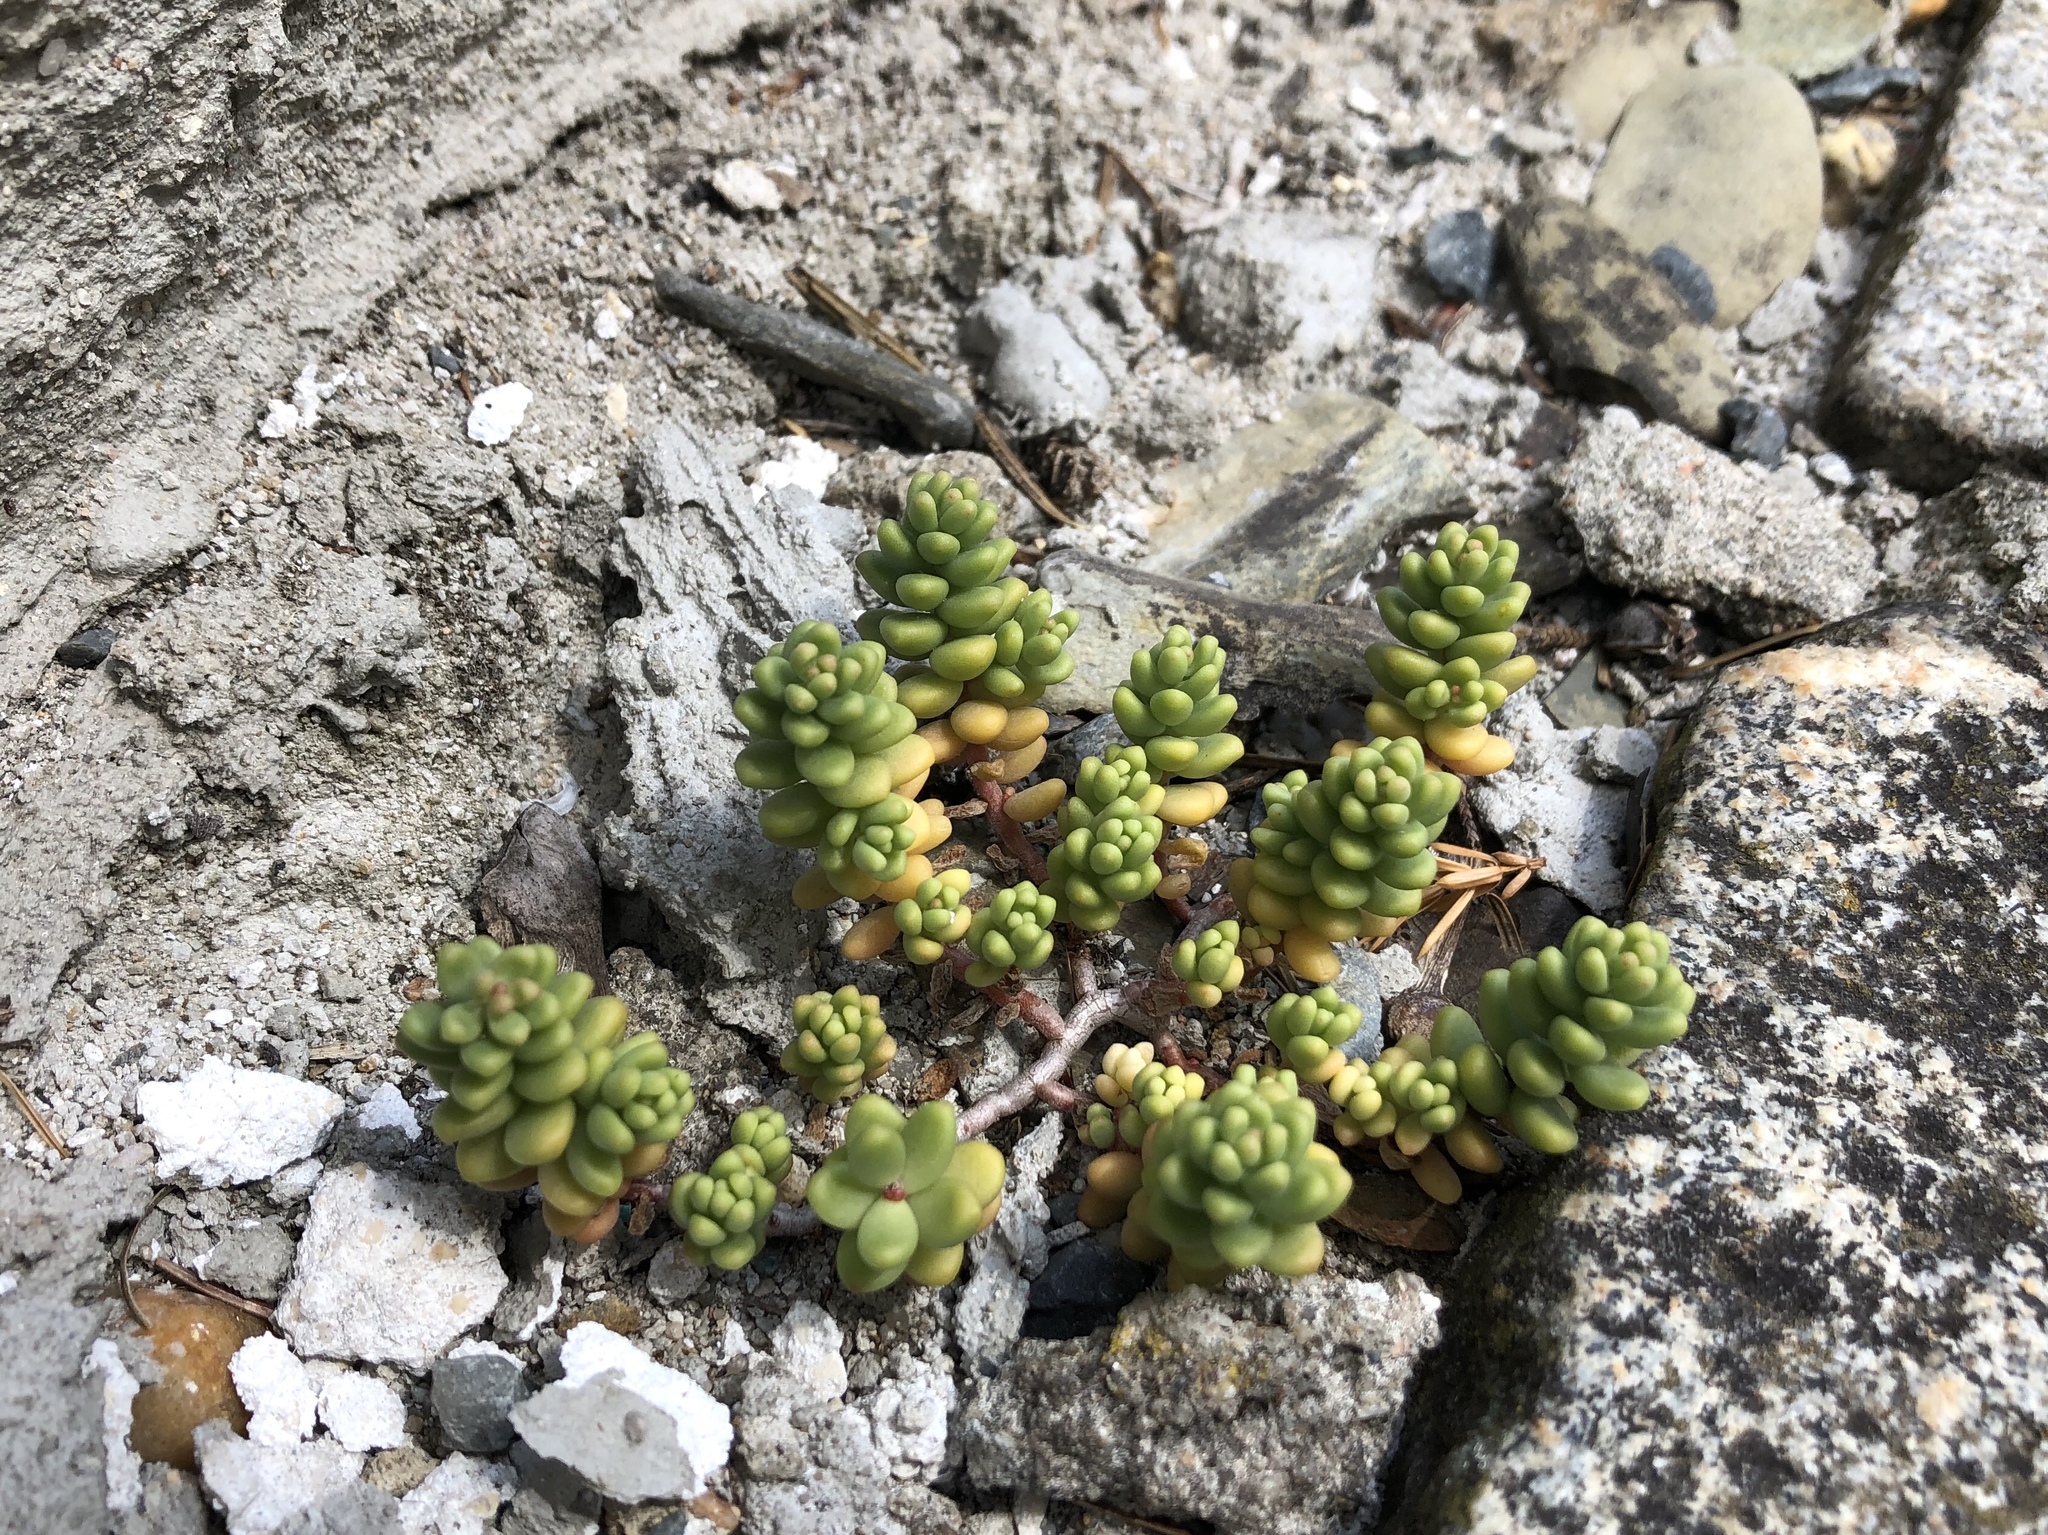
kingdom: Plantae
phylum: Tracheophyta
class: Magnoliopsida
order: Saxifragales
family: Crassulaceae
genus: Sedum
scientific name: Sedum album
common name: White stonecrop
